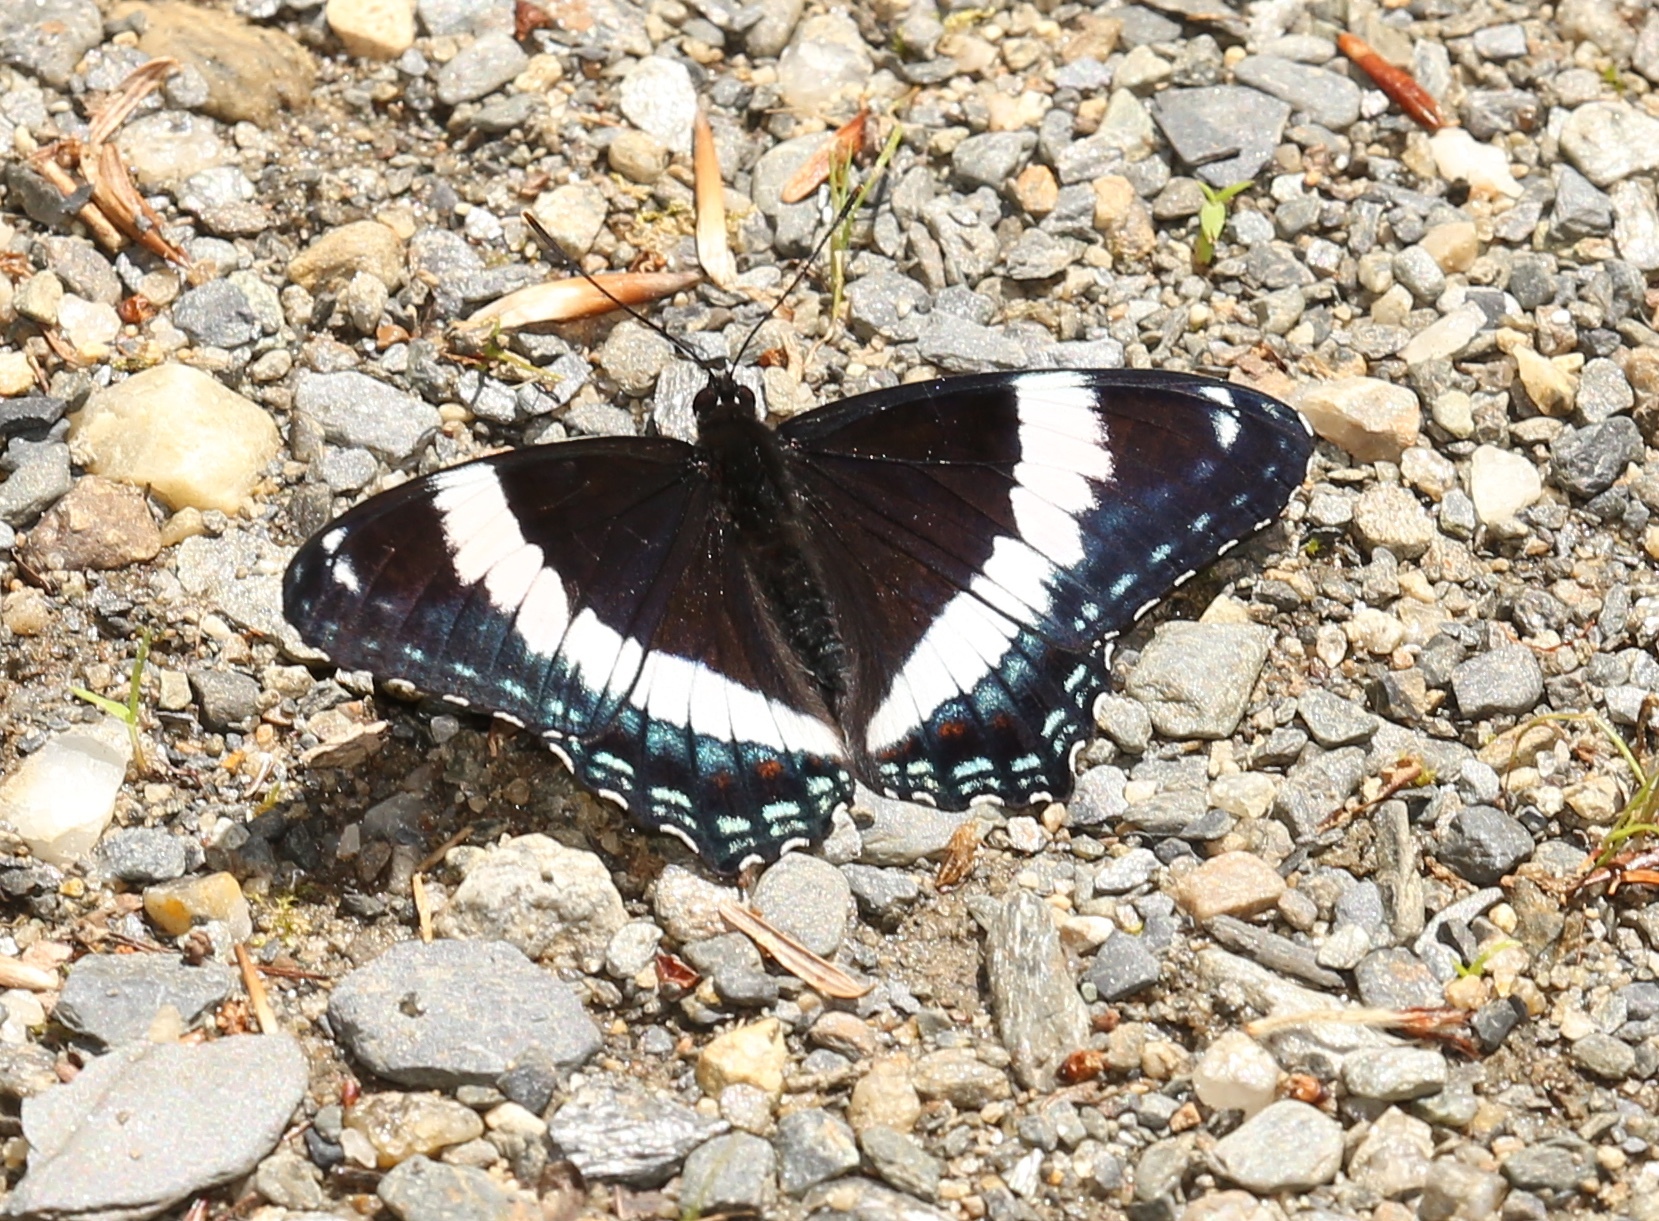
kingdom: Animalia
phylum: Arthropoda
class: Insecta
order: Lepidoptera
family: Nymphalidae
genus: Limenitis
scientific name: Limenitis arthemis
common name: Red-spotted admiral
